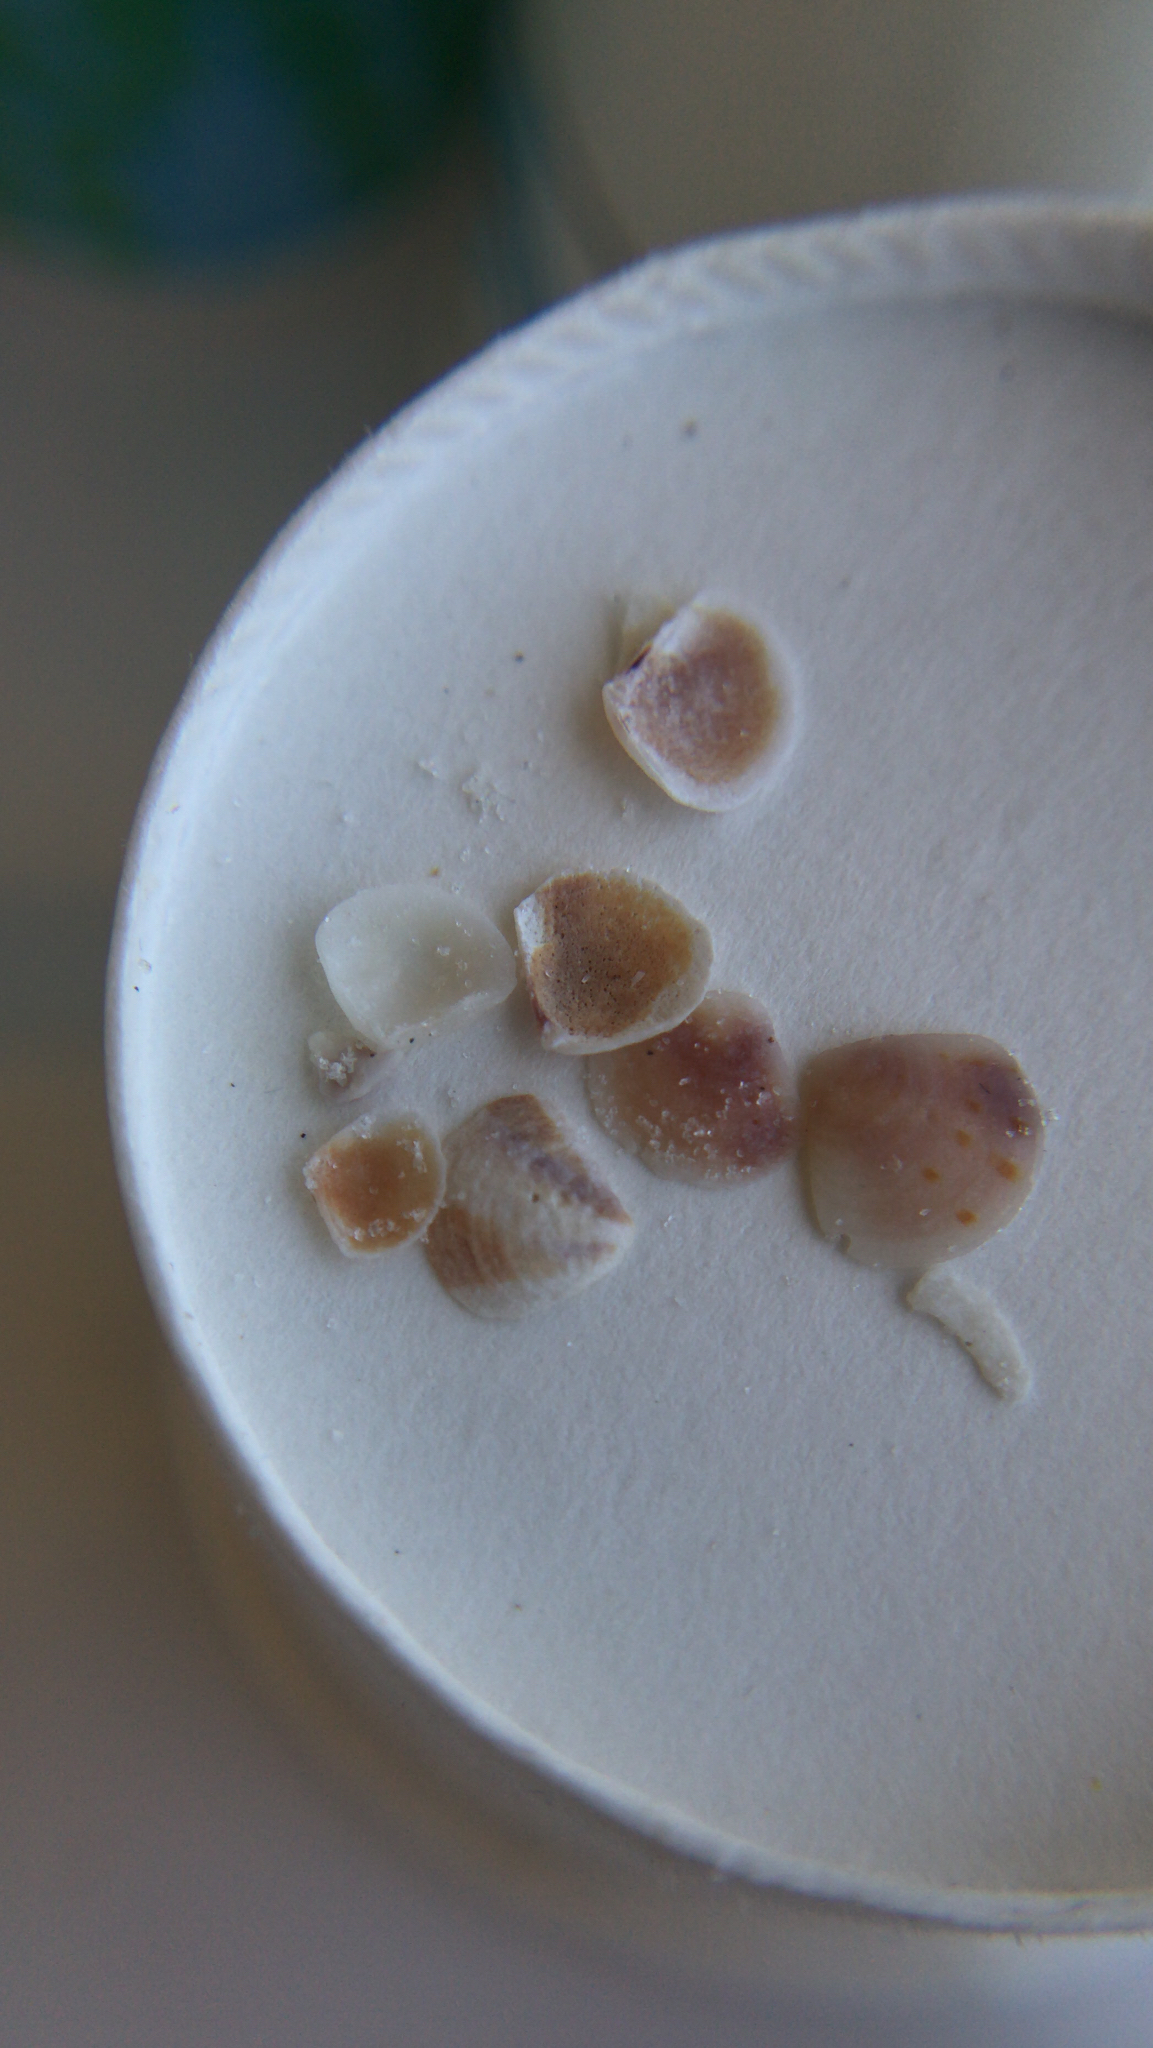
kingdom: Animalia
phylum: Mollusca
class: Bivalvia
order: Carditida
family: Crassatellidae
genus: Crassinella
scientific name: Crassinella lunulata
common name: Lunate crassinella
